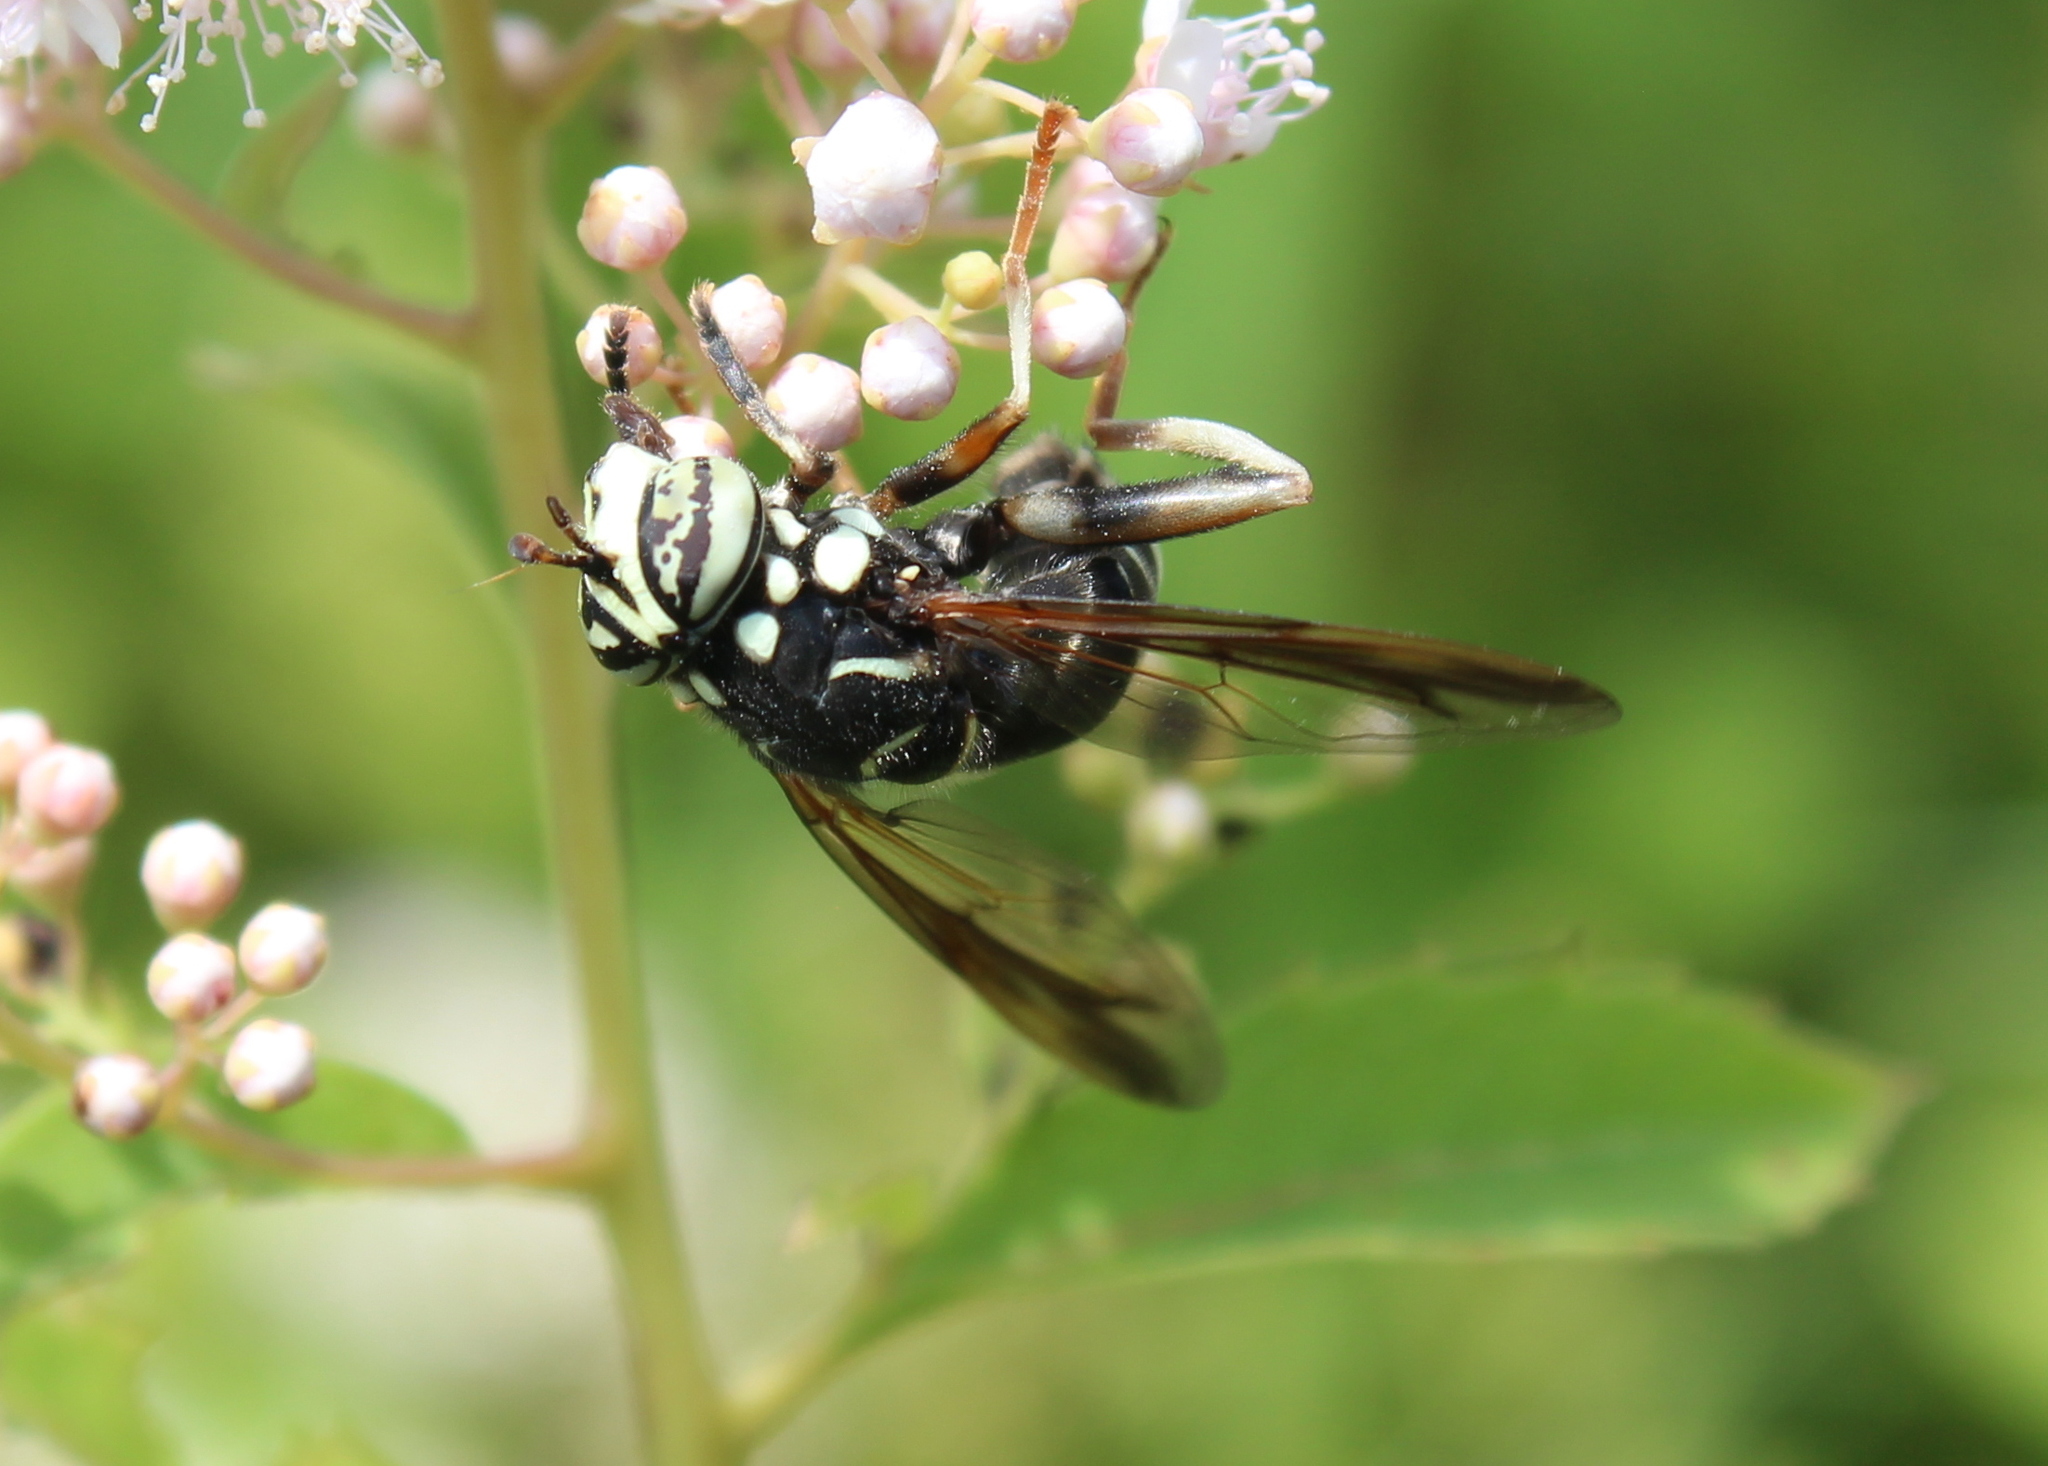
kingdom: Animalia
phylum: Arthropoda
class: Insecta
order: Diptera
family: Syrphidae
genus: Spilomyia
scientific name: Spilomyia fusca
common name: Bald-faced hornet fly
